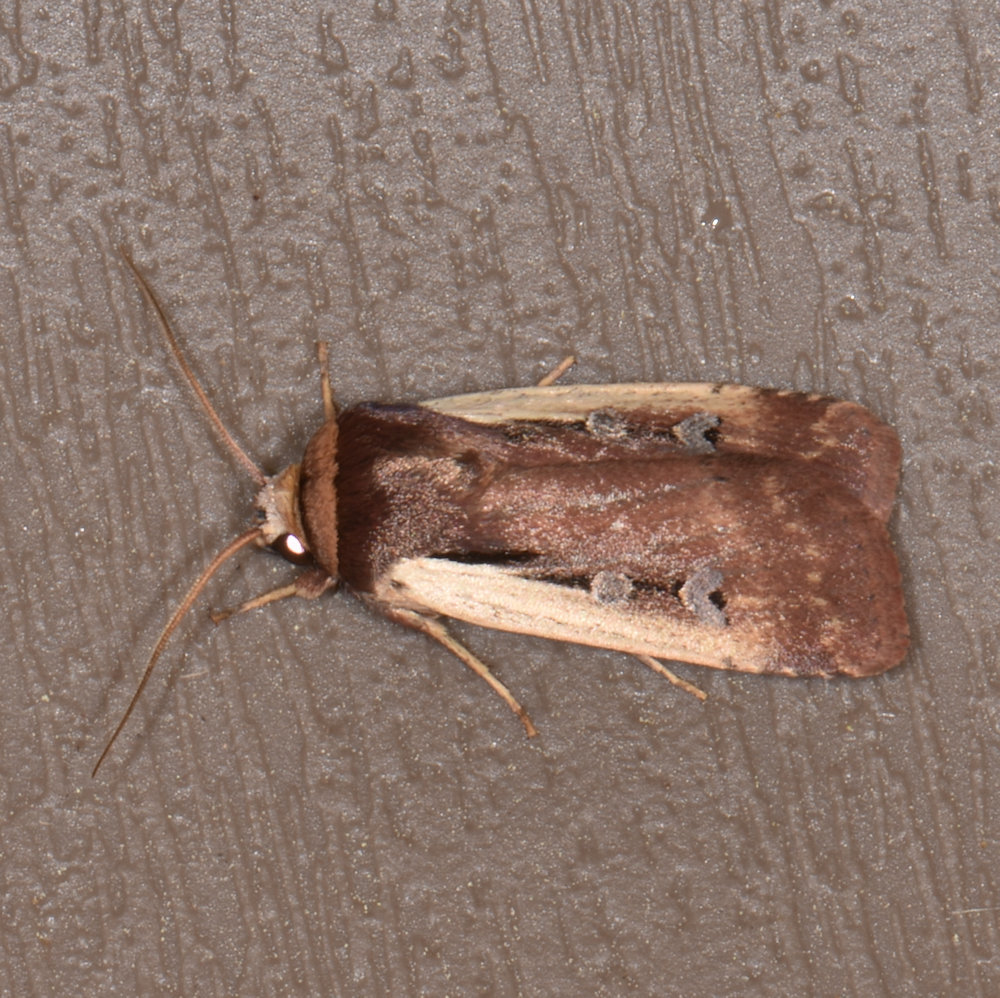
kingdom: Animalia
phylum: Arthropoda
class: Insecta
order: Lepidoptera
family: Noctuidae
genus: Ochropleura
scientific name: Ochropleura implecta
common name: Flame-shouldered dart
